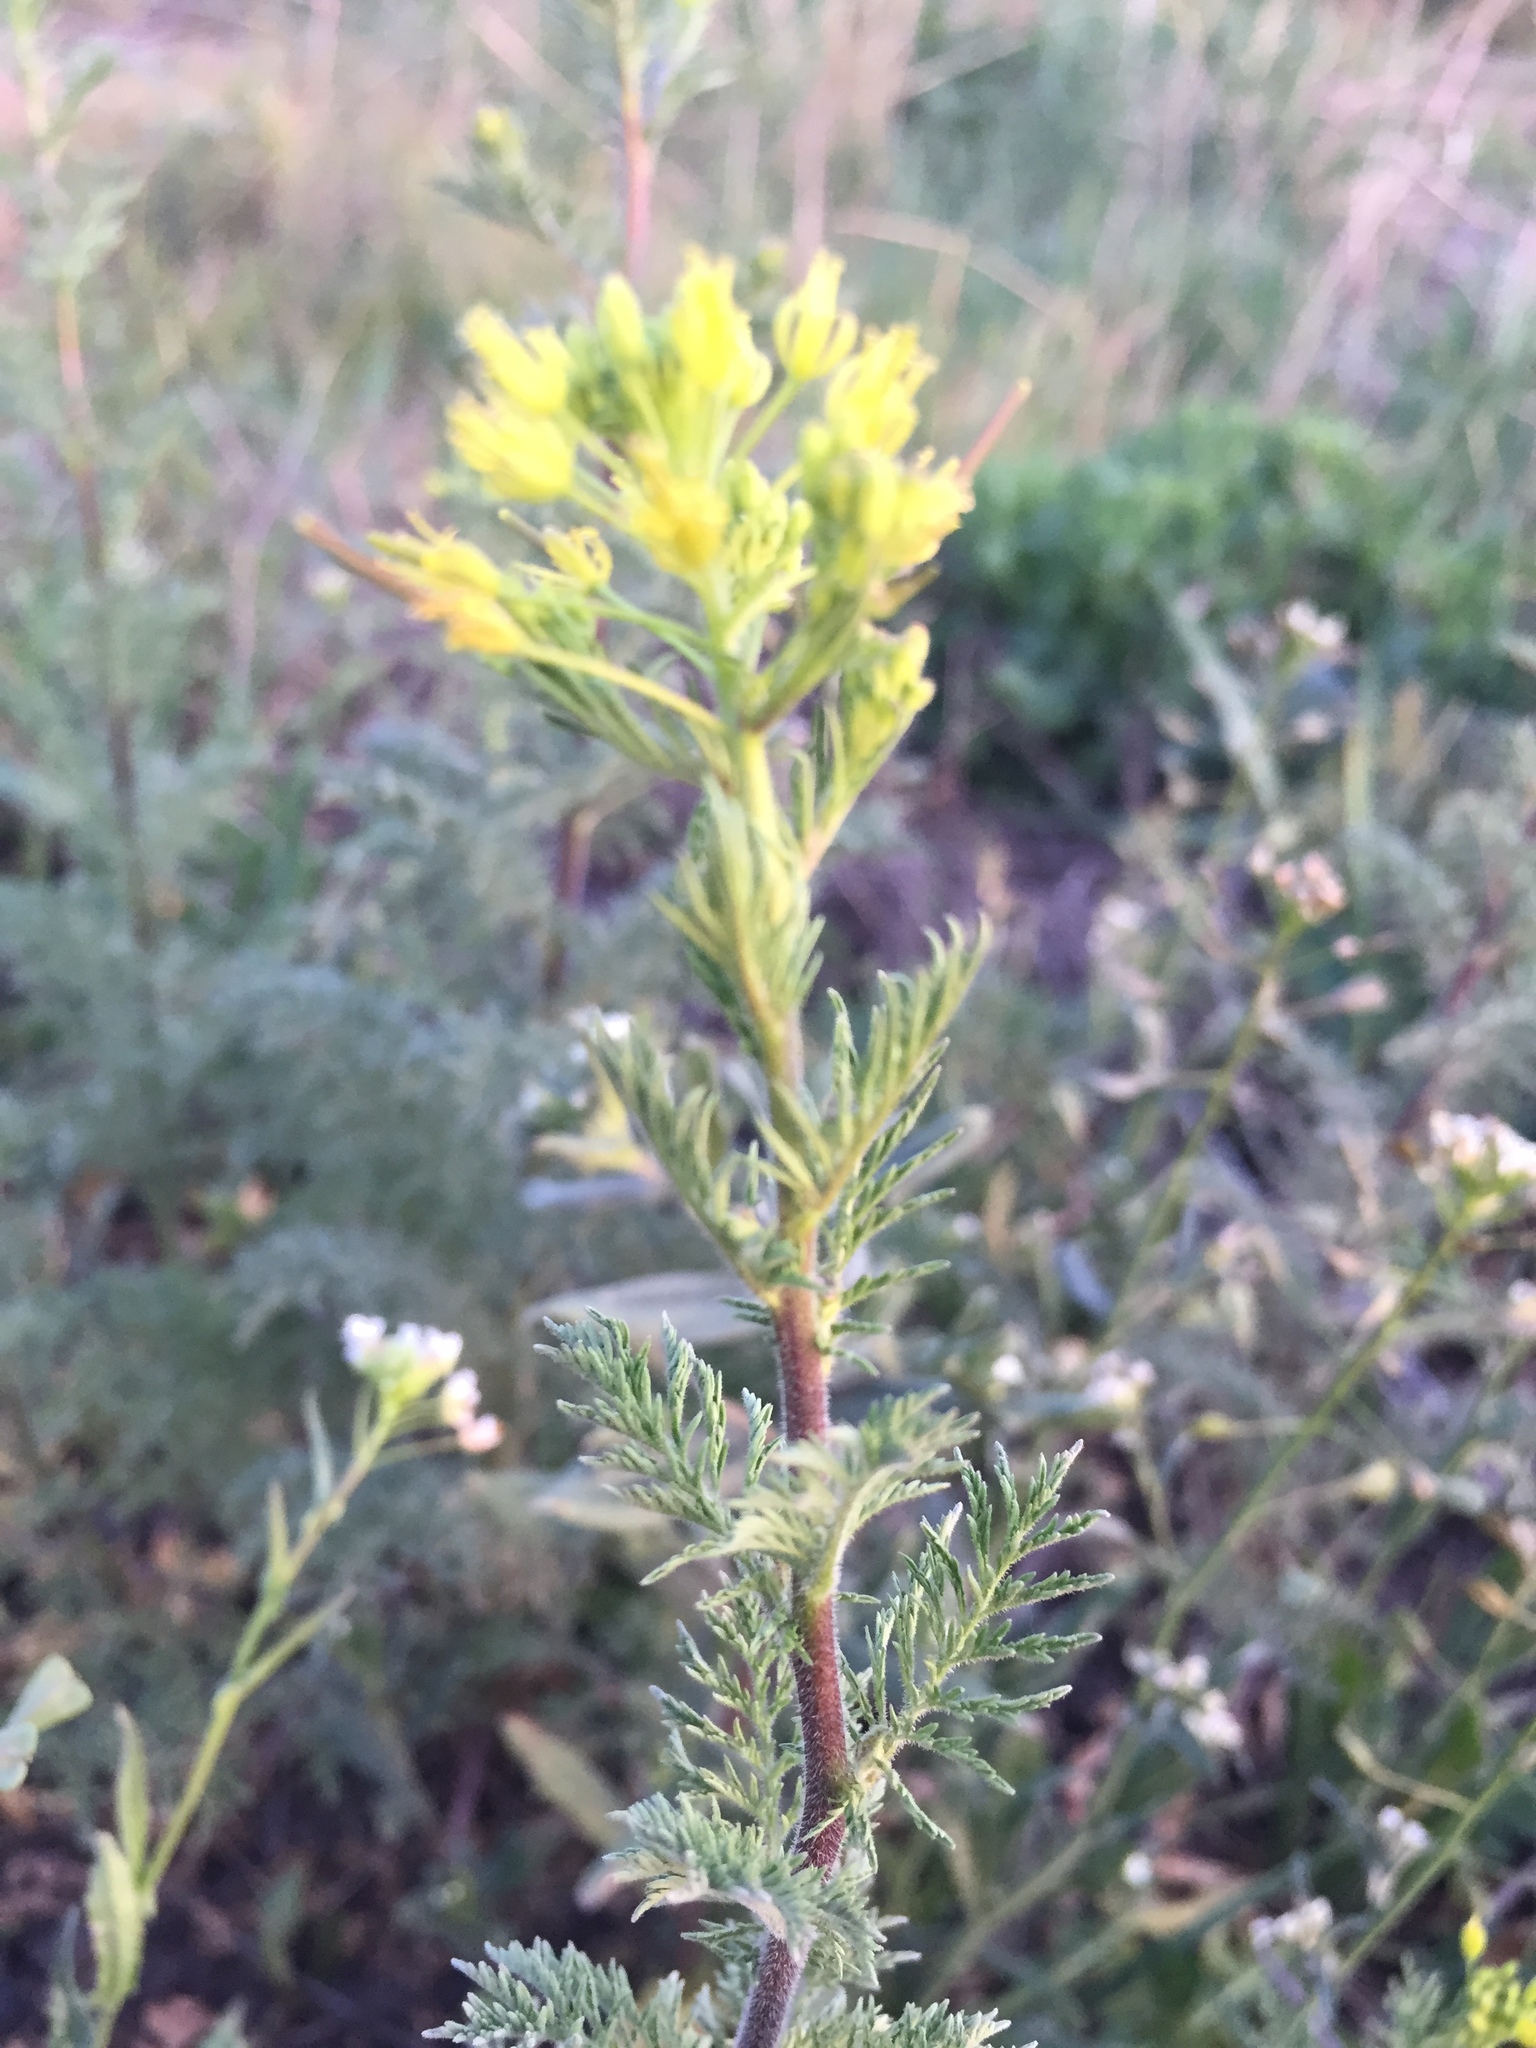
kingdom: Plantae
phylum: Tracheophyta
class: Magnoliopsida
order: Brassicales
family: Brassicaceae
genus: Descurainia
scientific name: Descurainia sophia
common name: Flixweed
